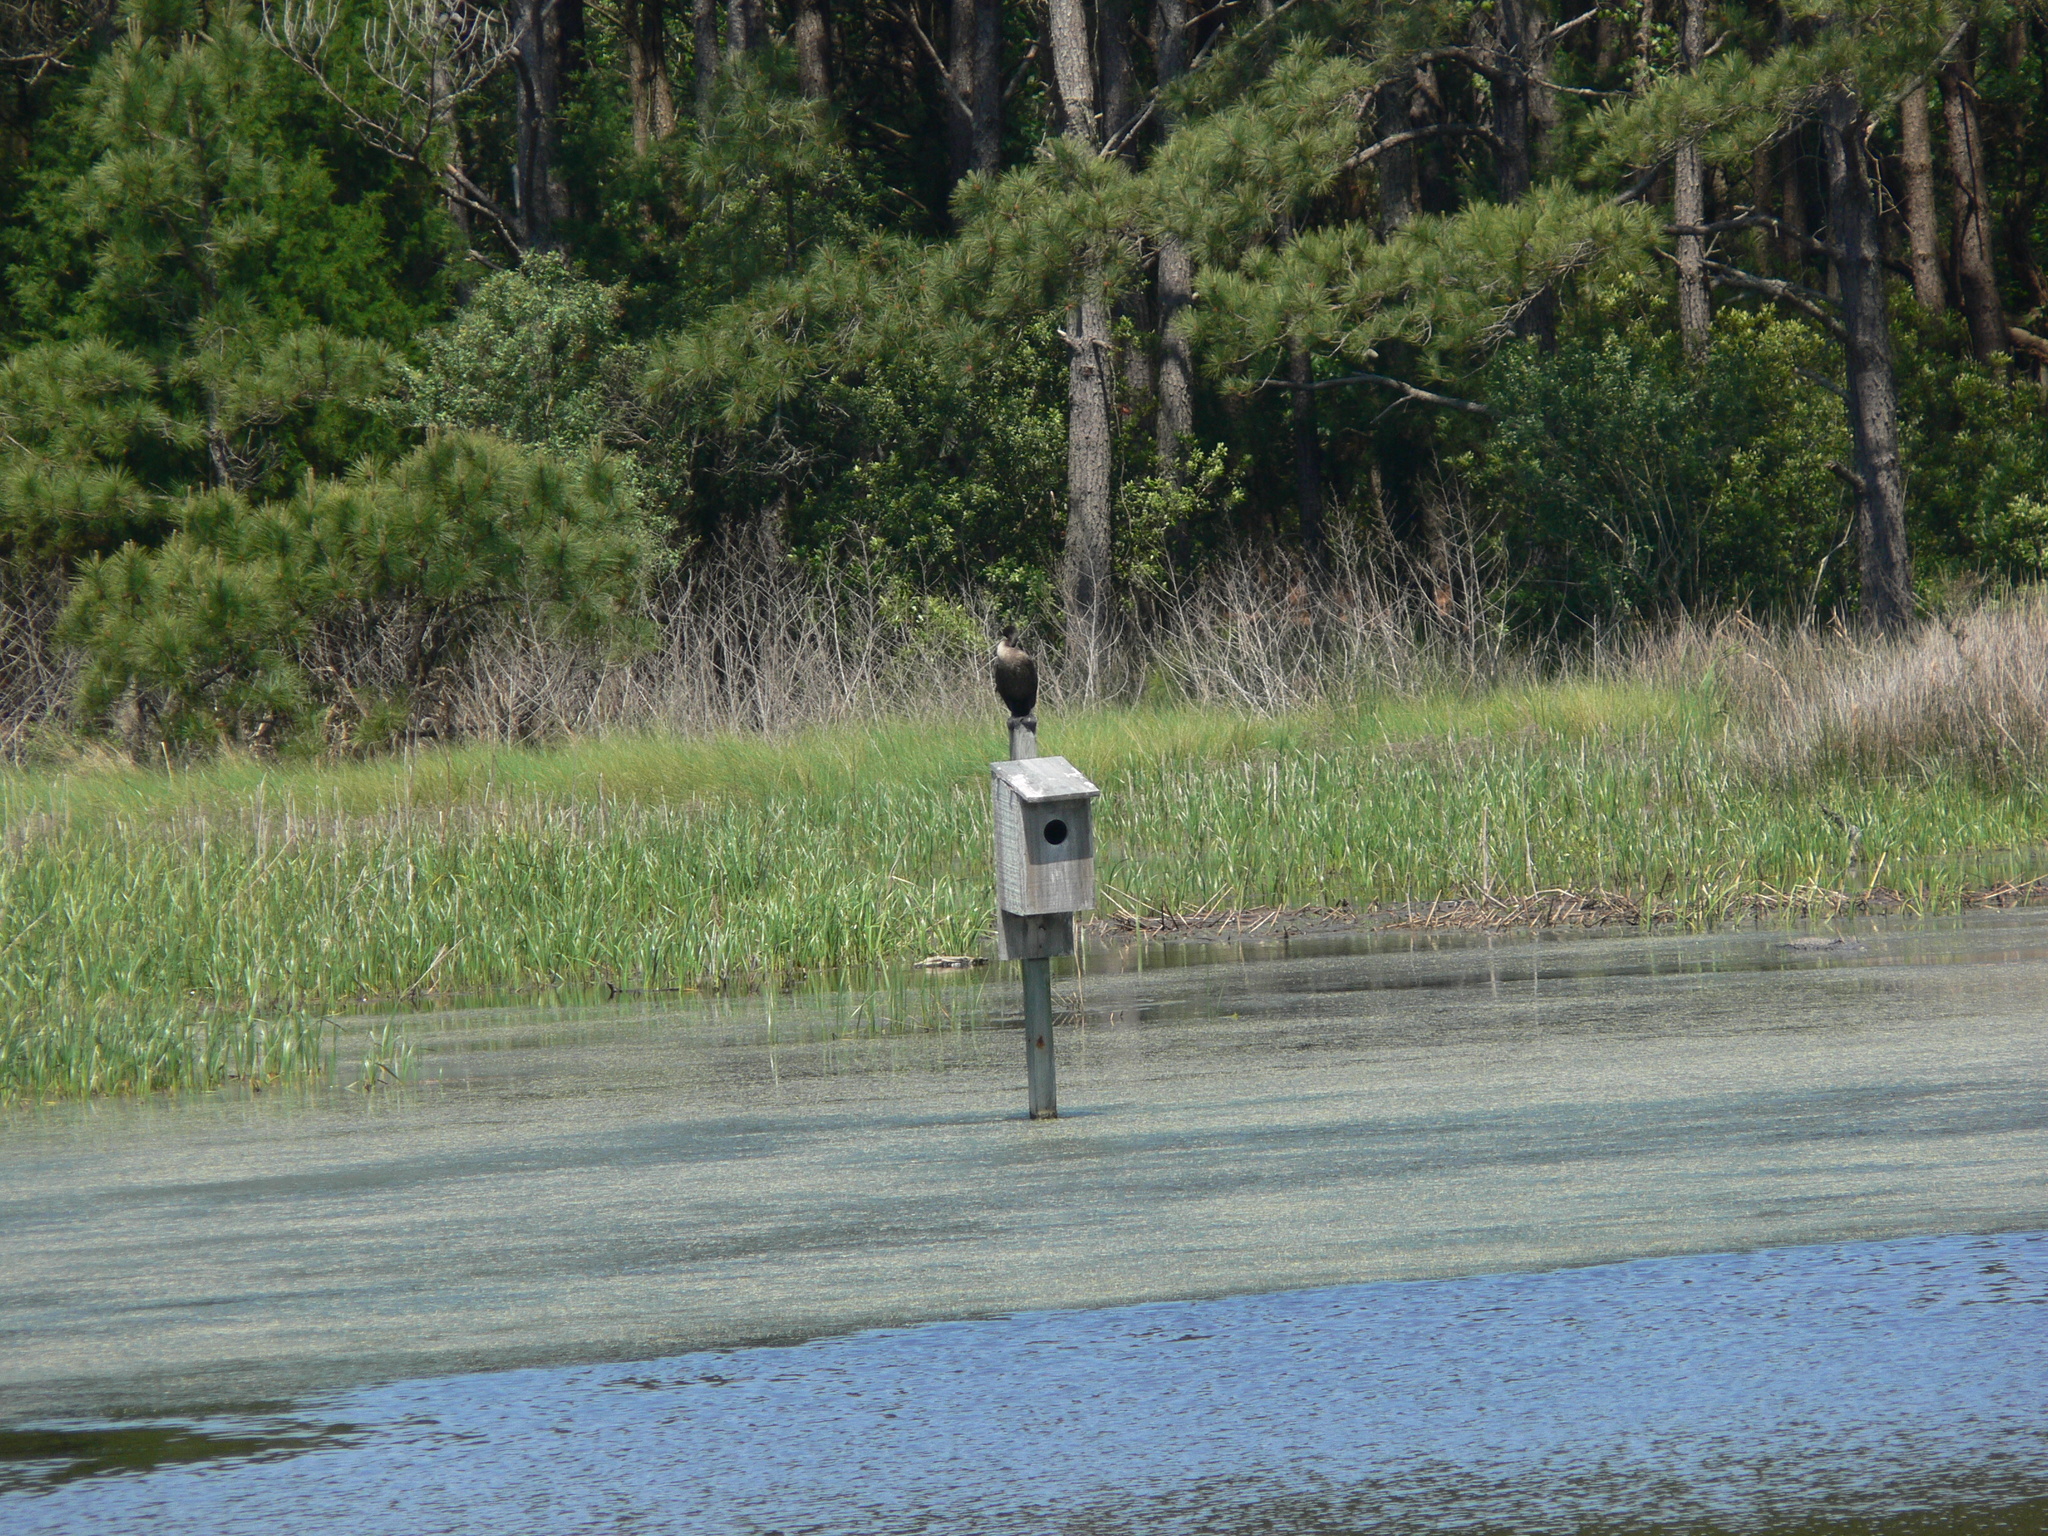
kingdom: Animalia
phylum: Chordata
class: Aves
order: Suliformes
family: Phalacrocoracidae
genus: Phalacrocorax
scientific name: Phalacrocorax auritus
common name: Double-crested cormorant
